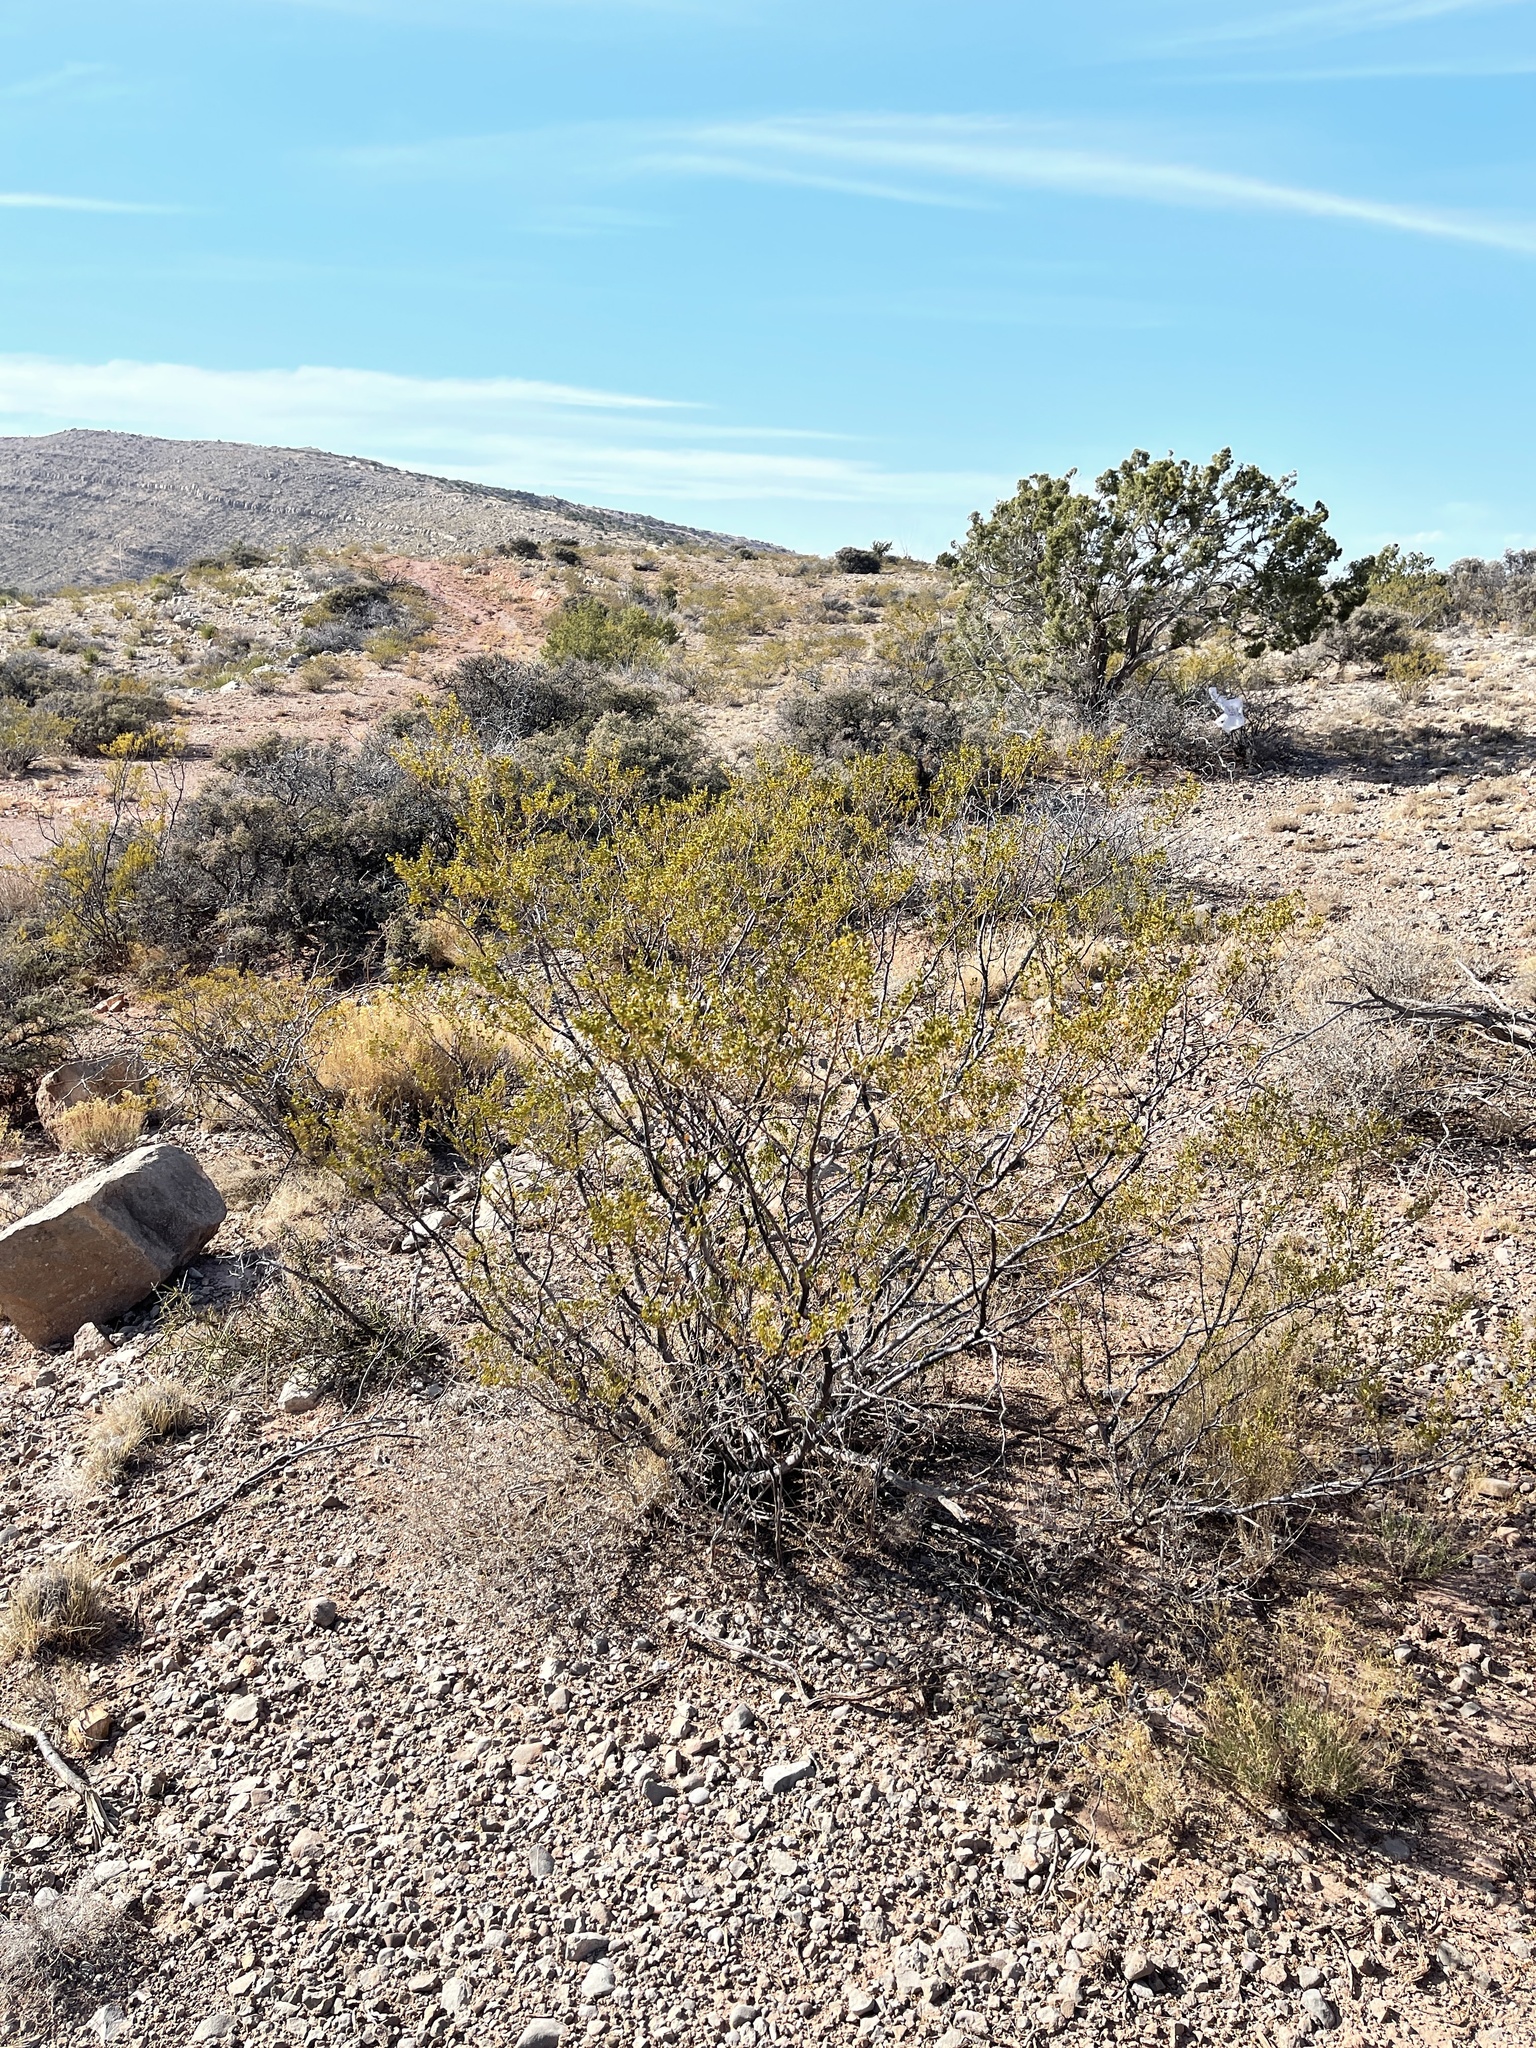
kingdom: Plantae
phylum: Tracheophyta
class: Magnoliopsida
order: Zygophyllales
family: Zygophyllaceae
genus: Larrea
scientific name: Larrea tridentata
